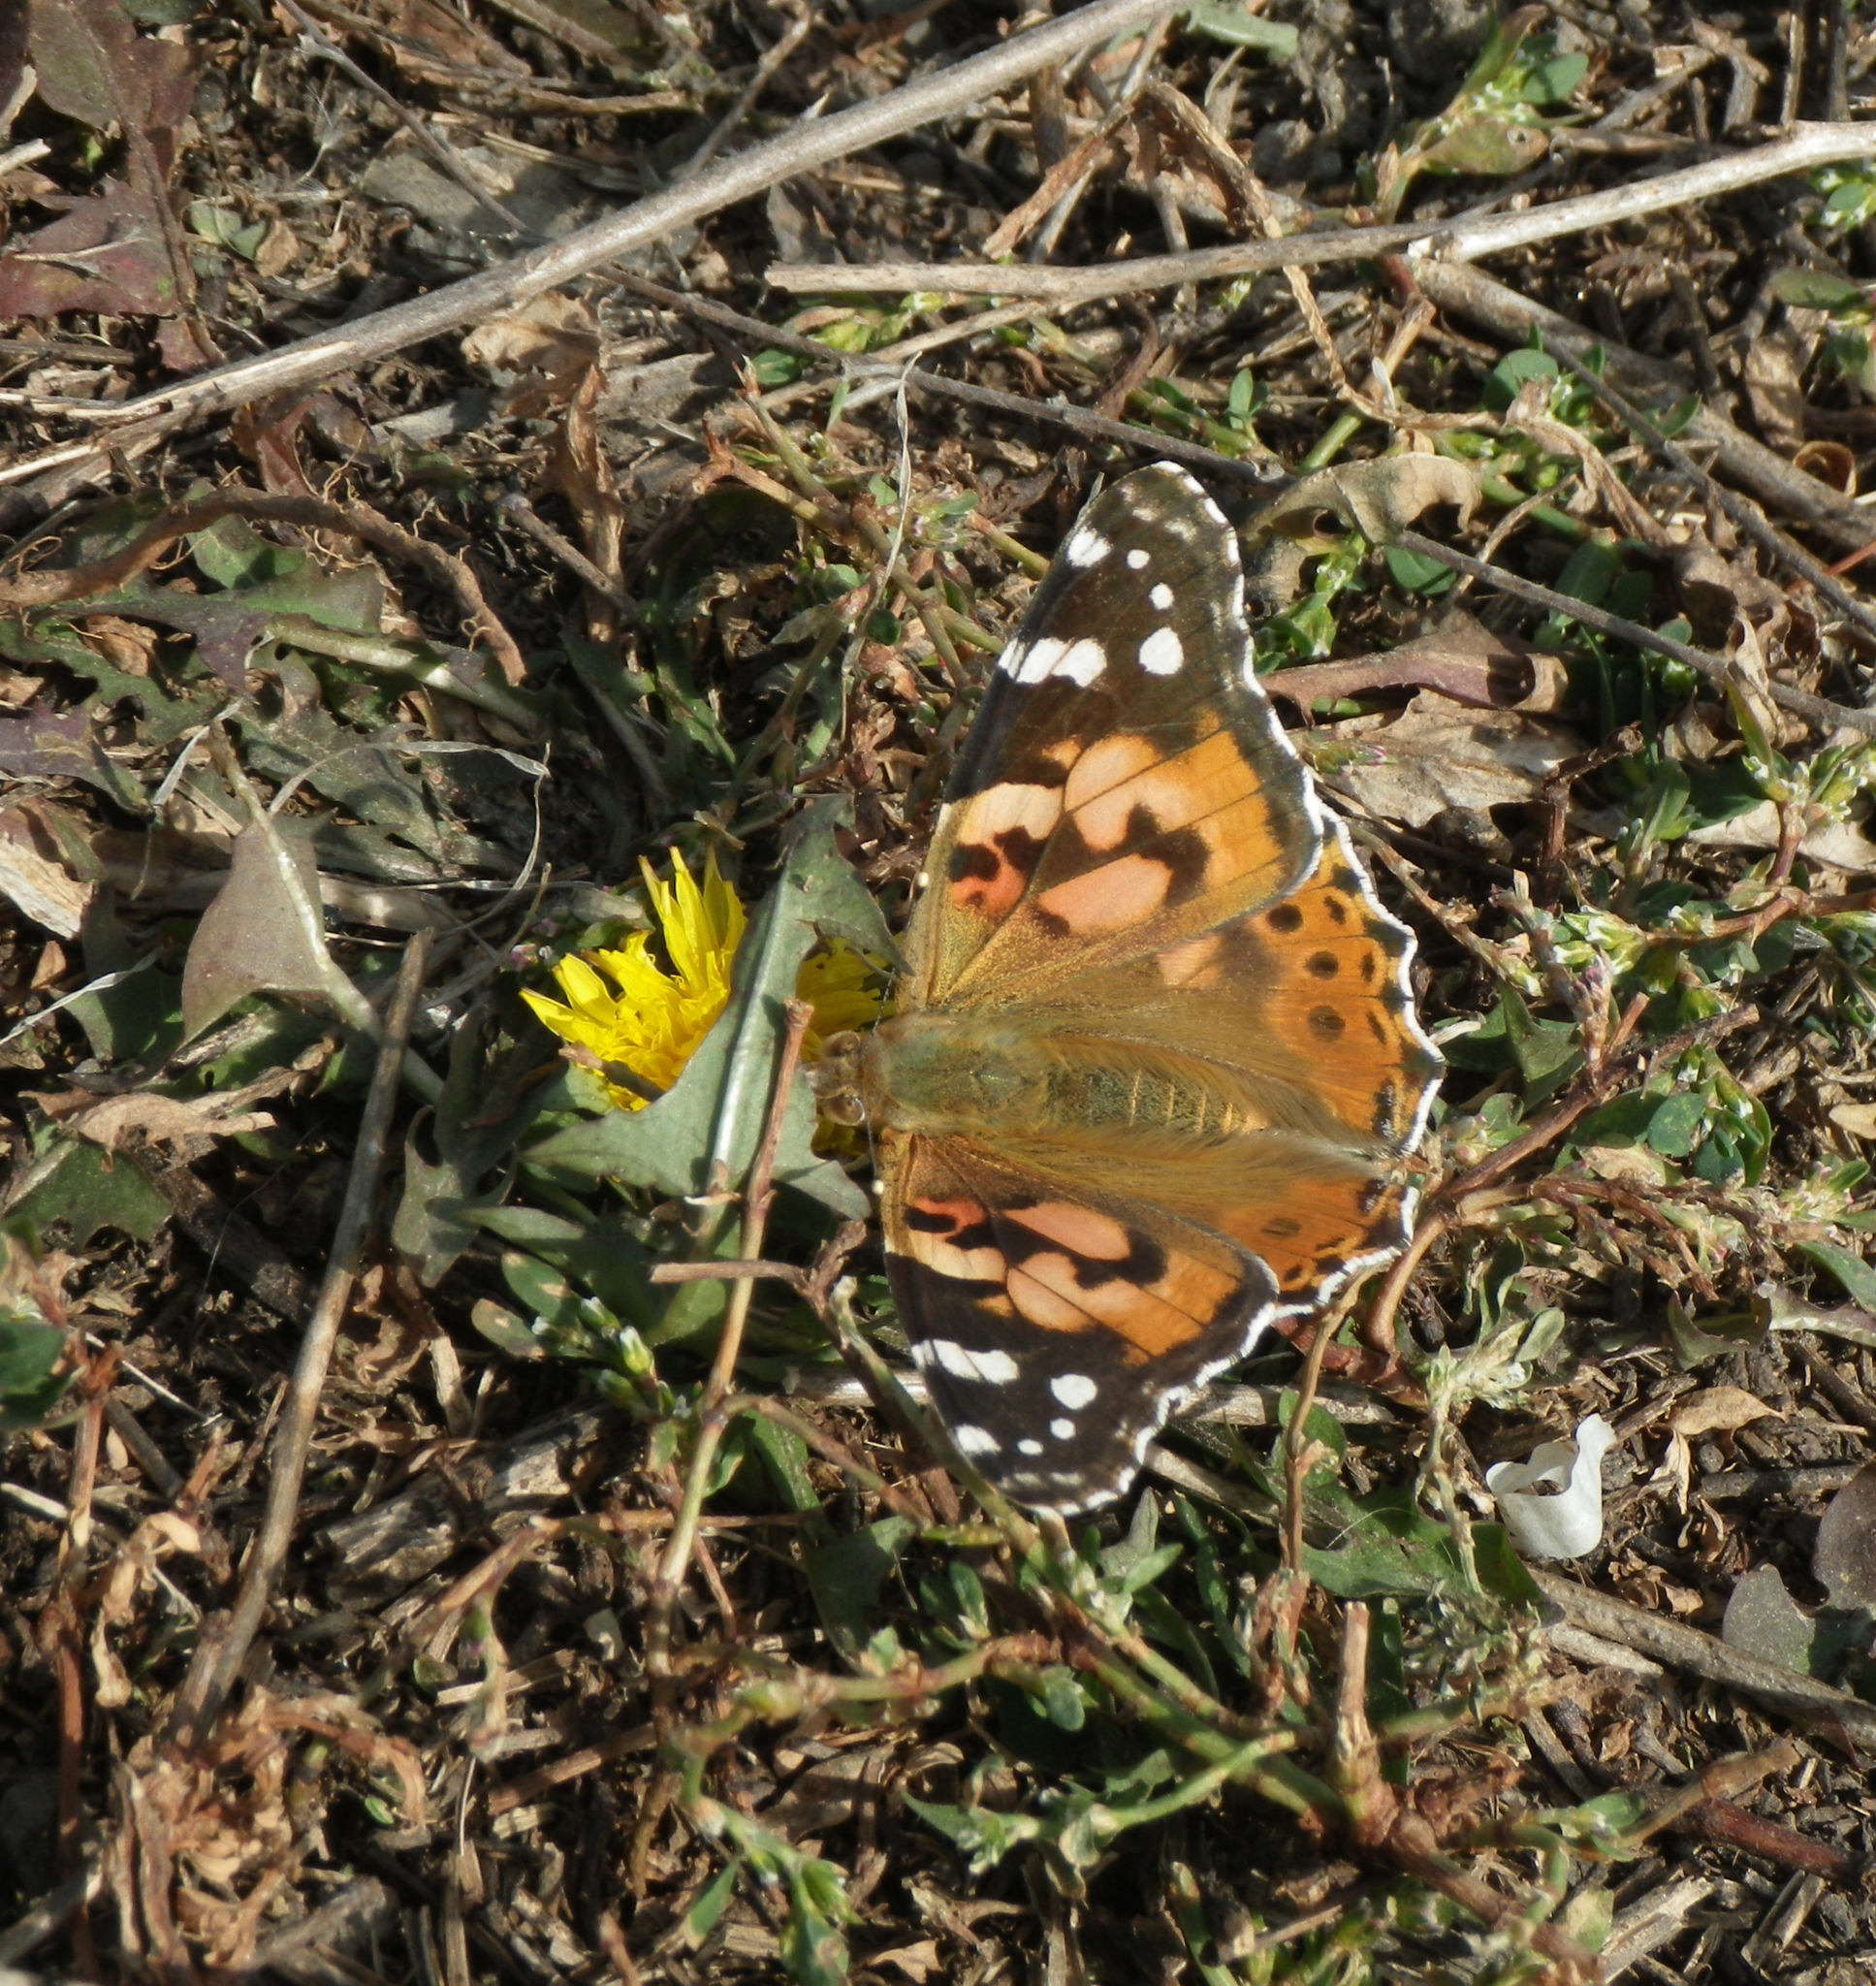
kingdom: Animalia
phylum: Arthropoda
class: Insecta
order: Lepidoptera
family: Nymphalidae
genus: Vanessa
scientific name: Vanessa cardui
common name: Painted lady
